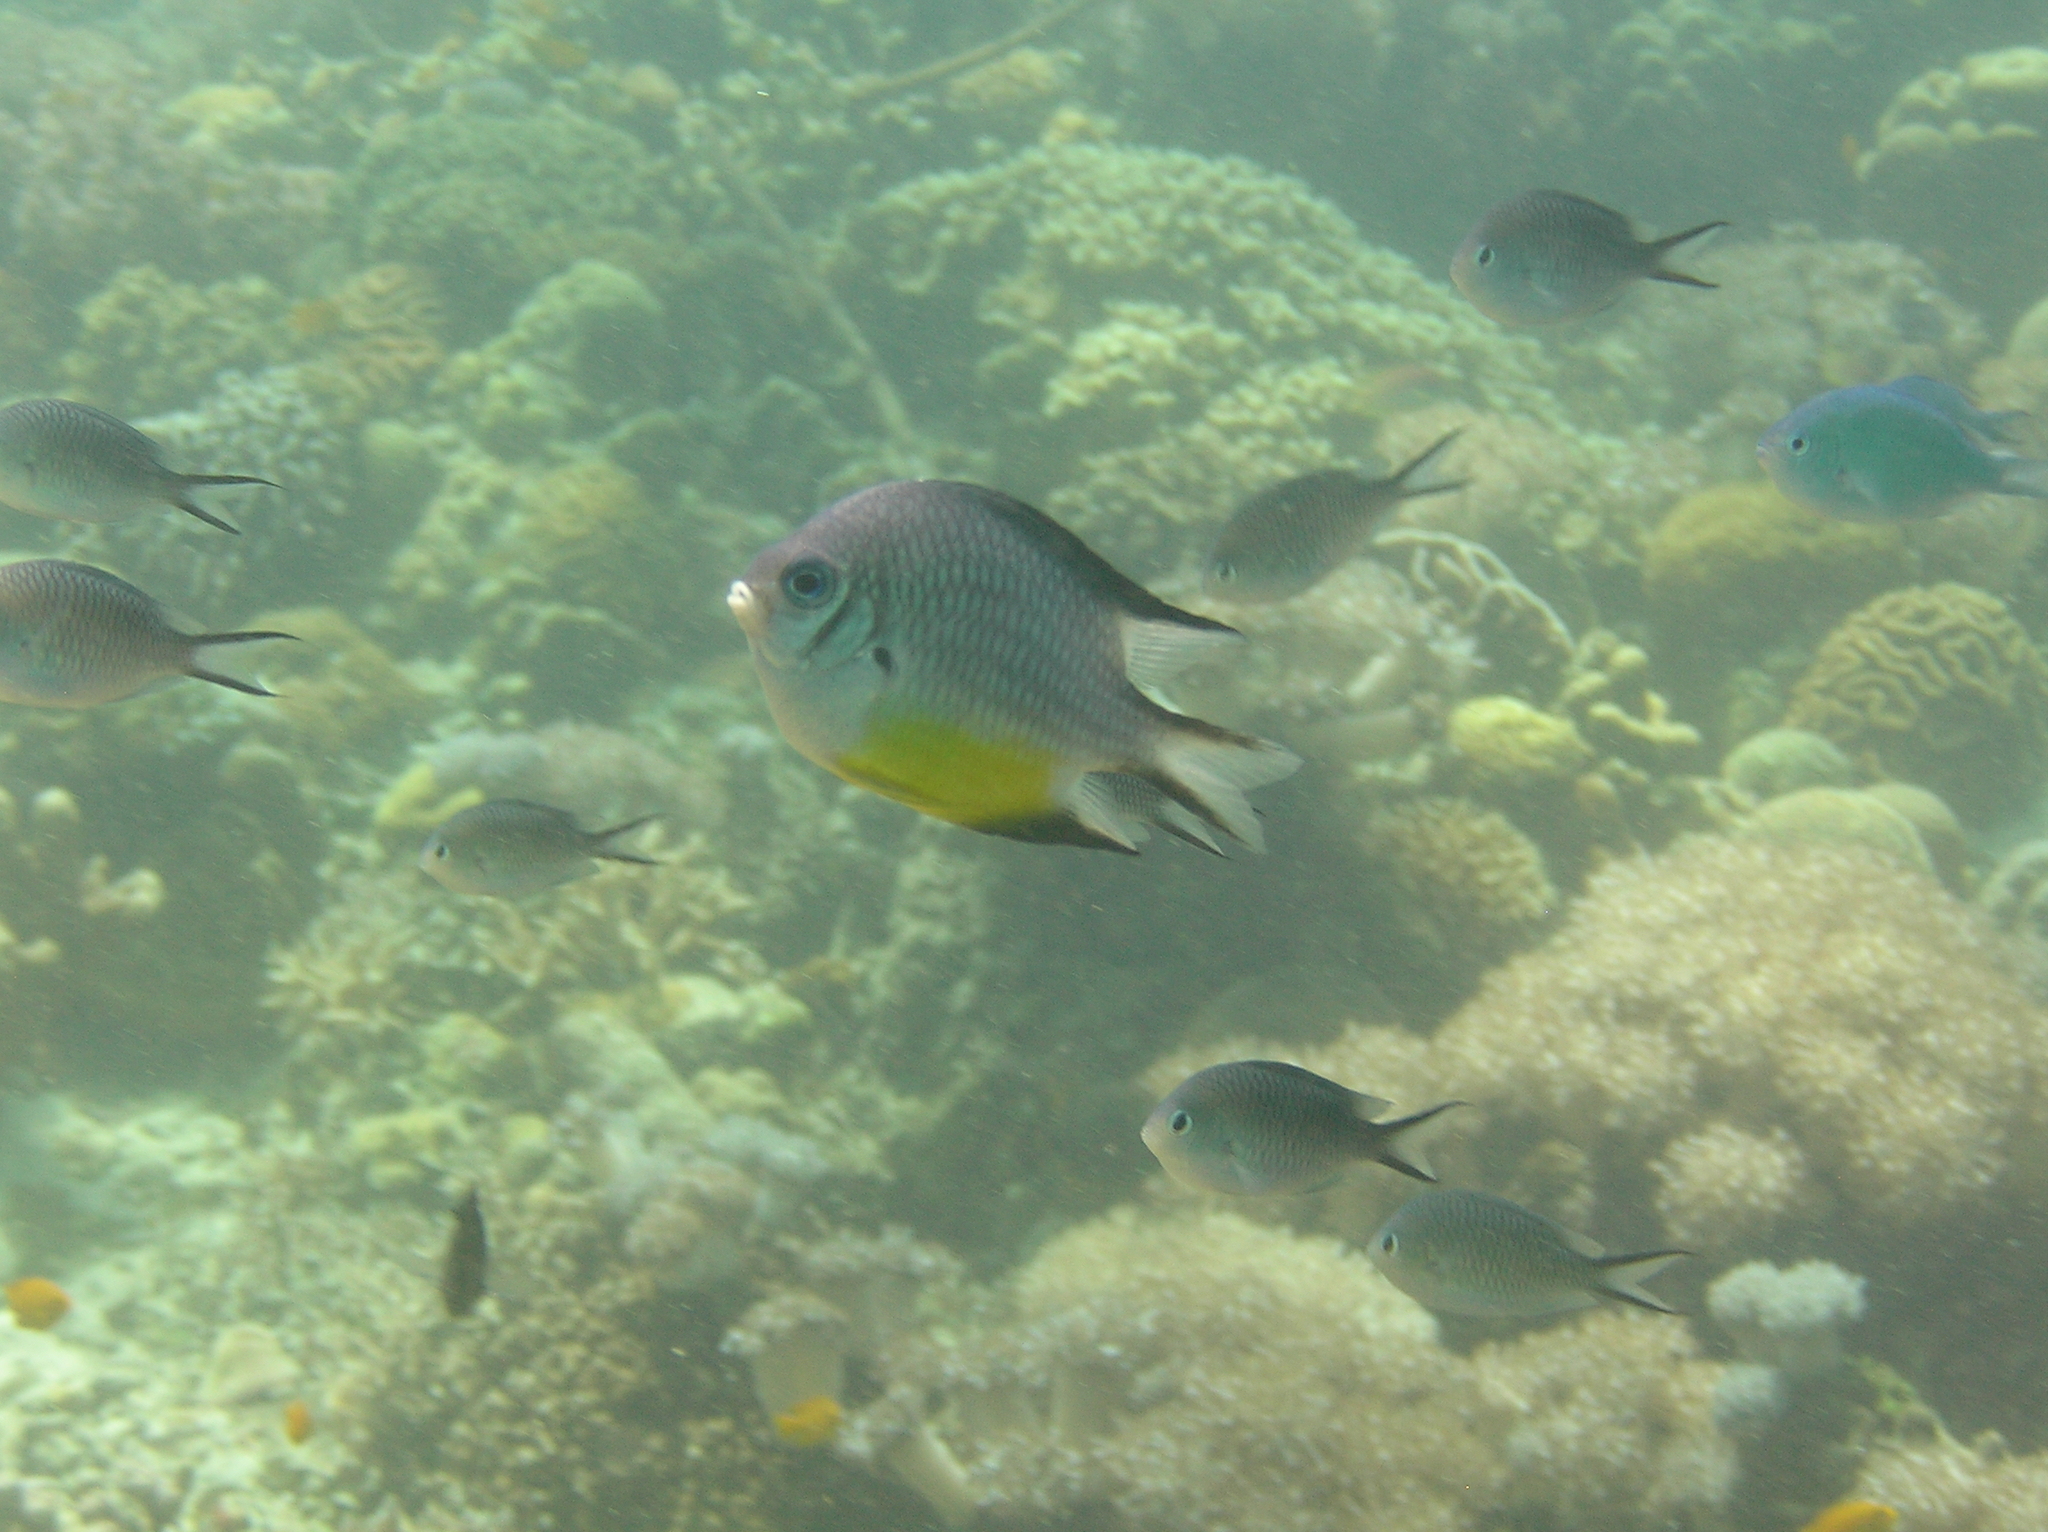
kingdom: Animalia
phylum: Chordata
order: Perciformes
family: Pomacentridae
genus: Amblyglyphidodon
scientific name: Amblyglyphidodon leucogaster
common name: White-belly damsel
